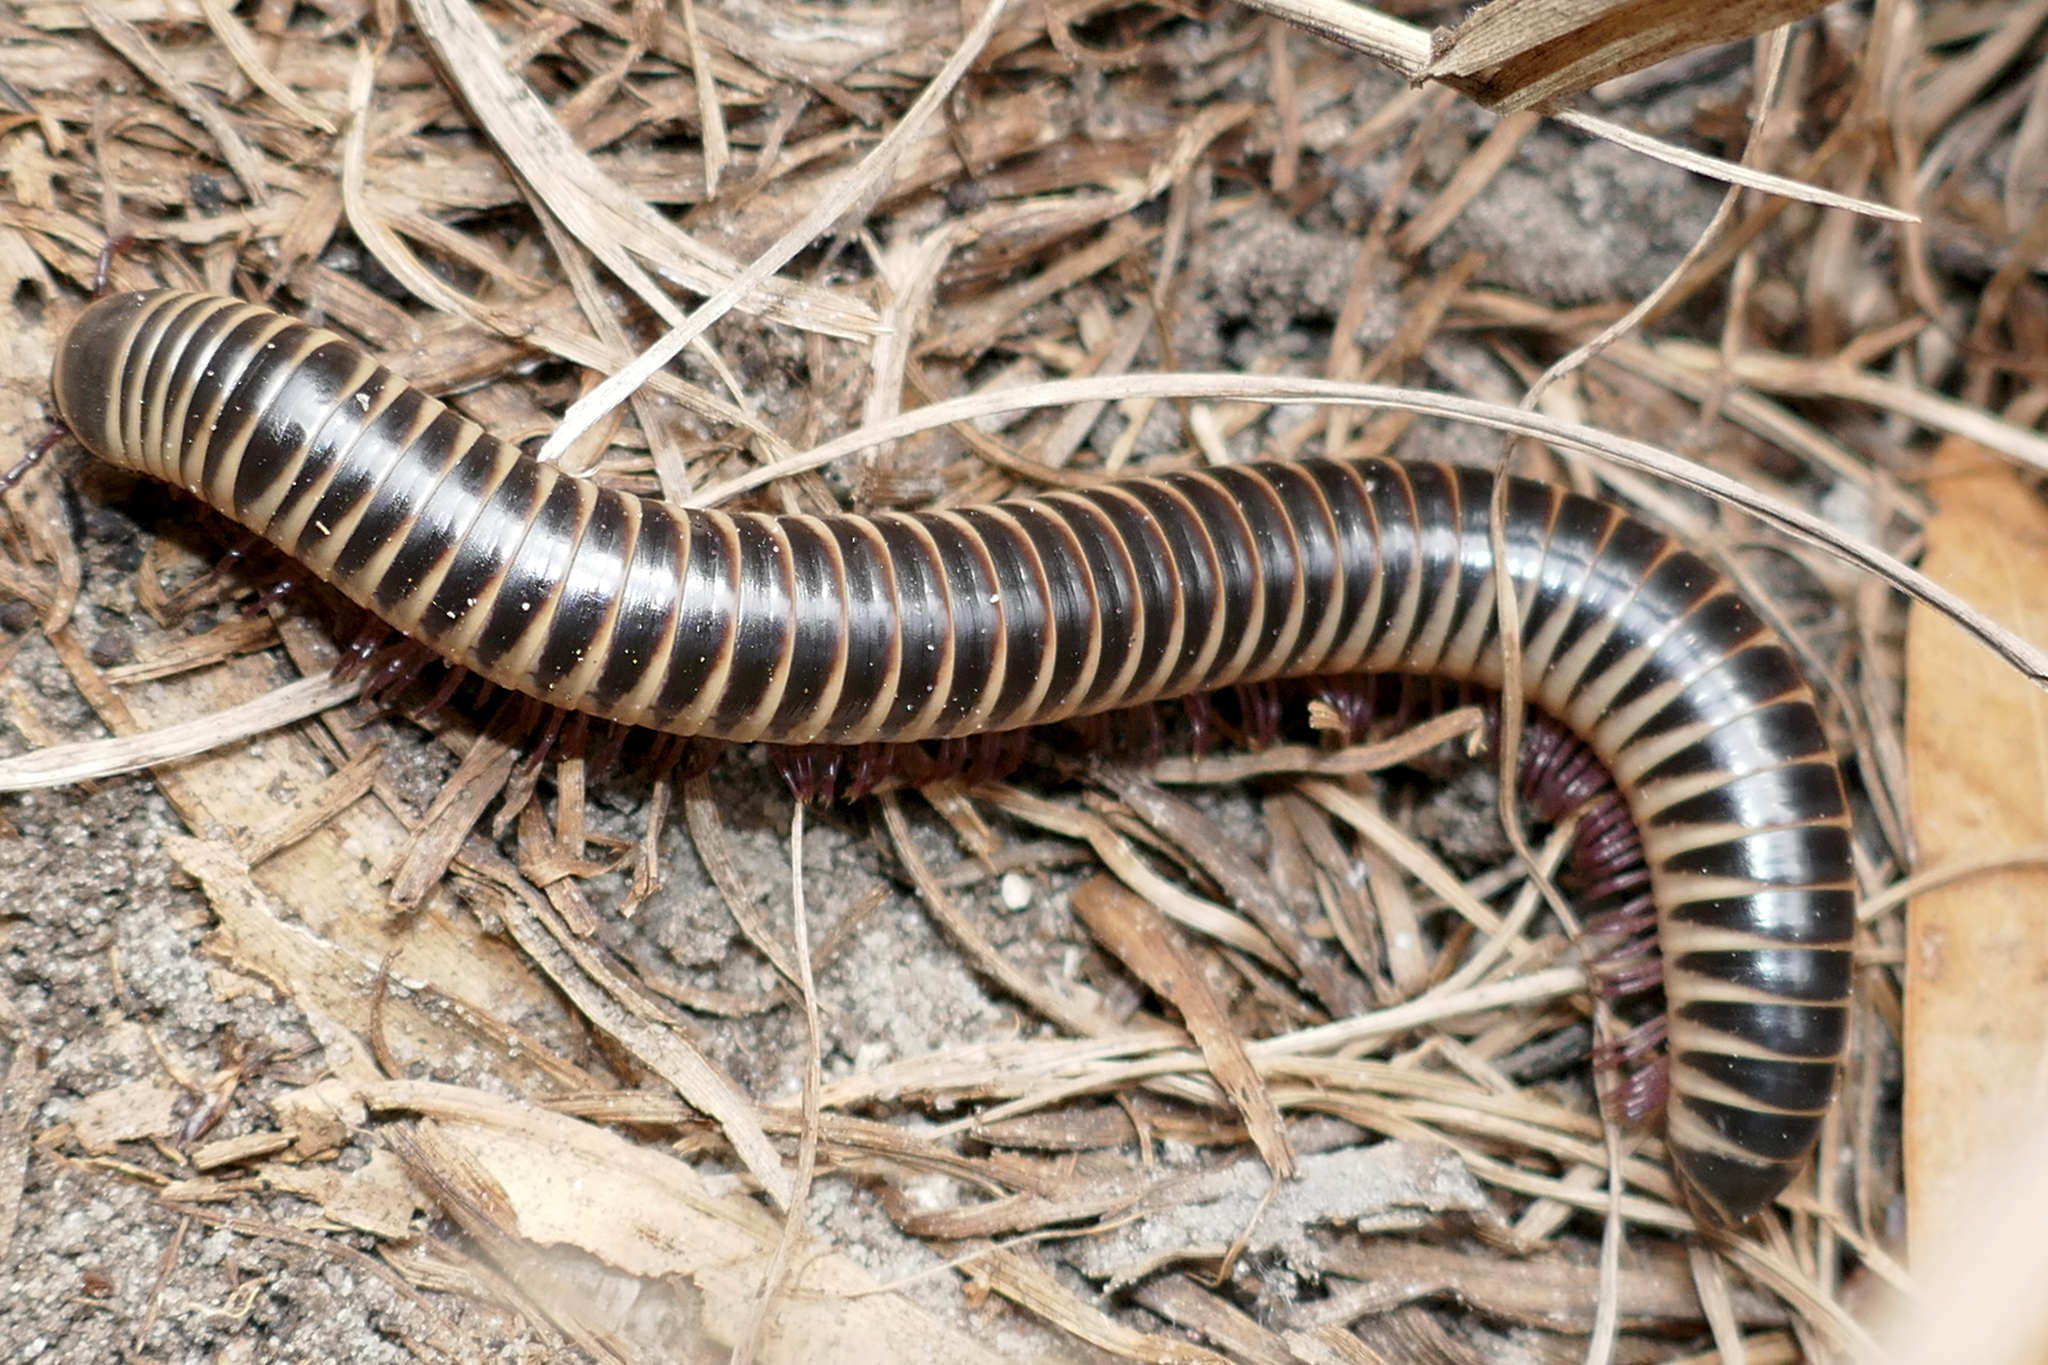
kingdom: Animalia
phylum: Arthropoda
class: Diplopoda
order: Spirobolida
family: Spirobolidae
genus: Chicobolus
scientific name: Chicobolus spinigerus
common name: Florida ivory millipede
